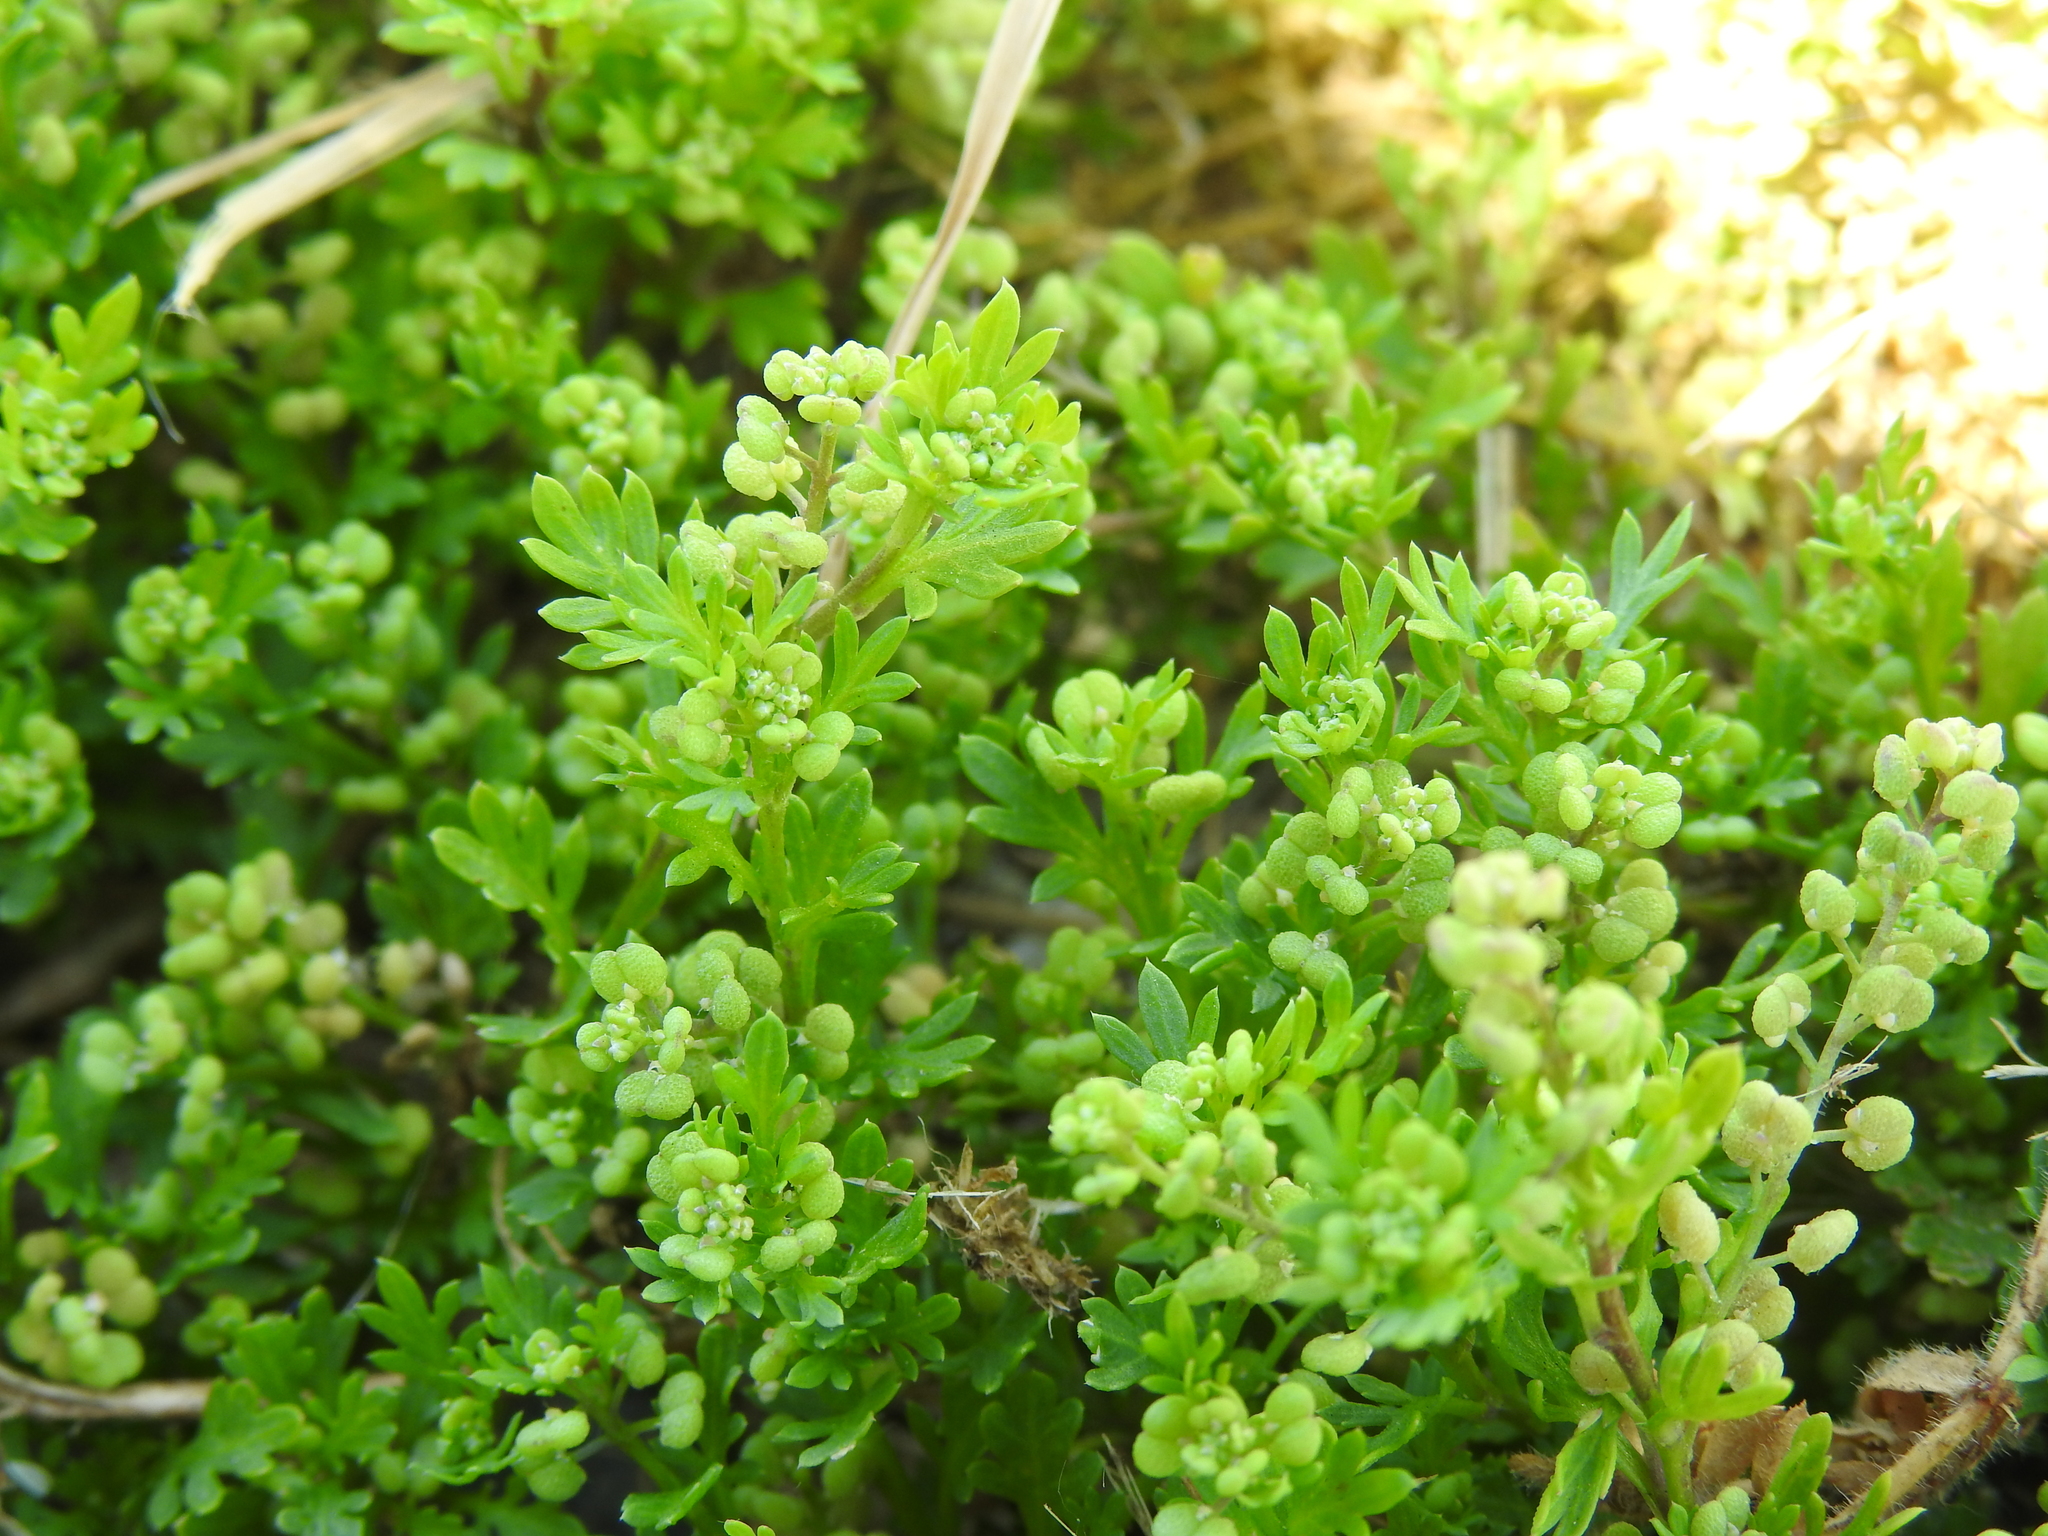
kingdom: Plantae
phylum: Tracheophyta
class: Magnoliopsida
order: Brassicales
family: Brassicaceae
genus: Lepidium
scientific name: Lepidium didymum
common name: Lesser swinecress
